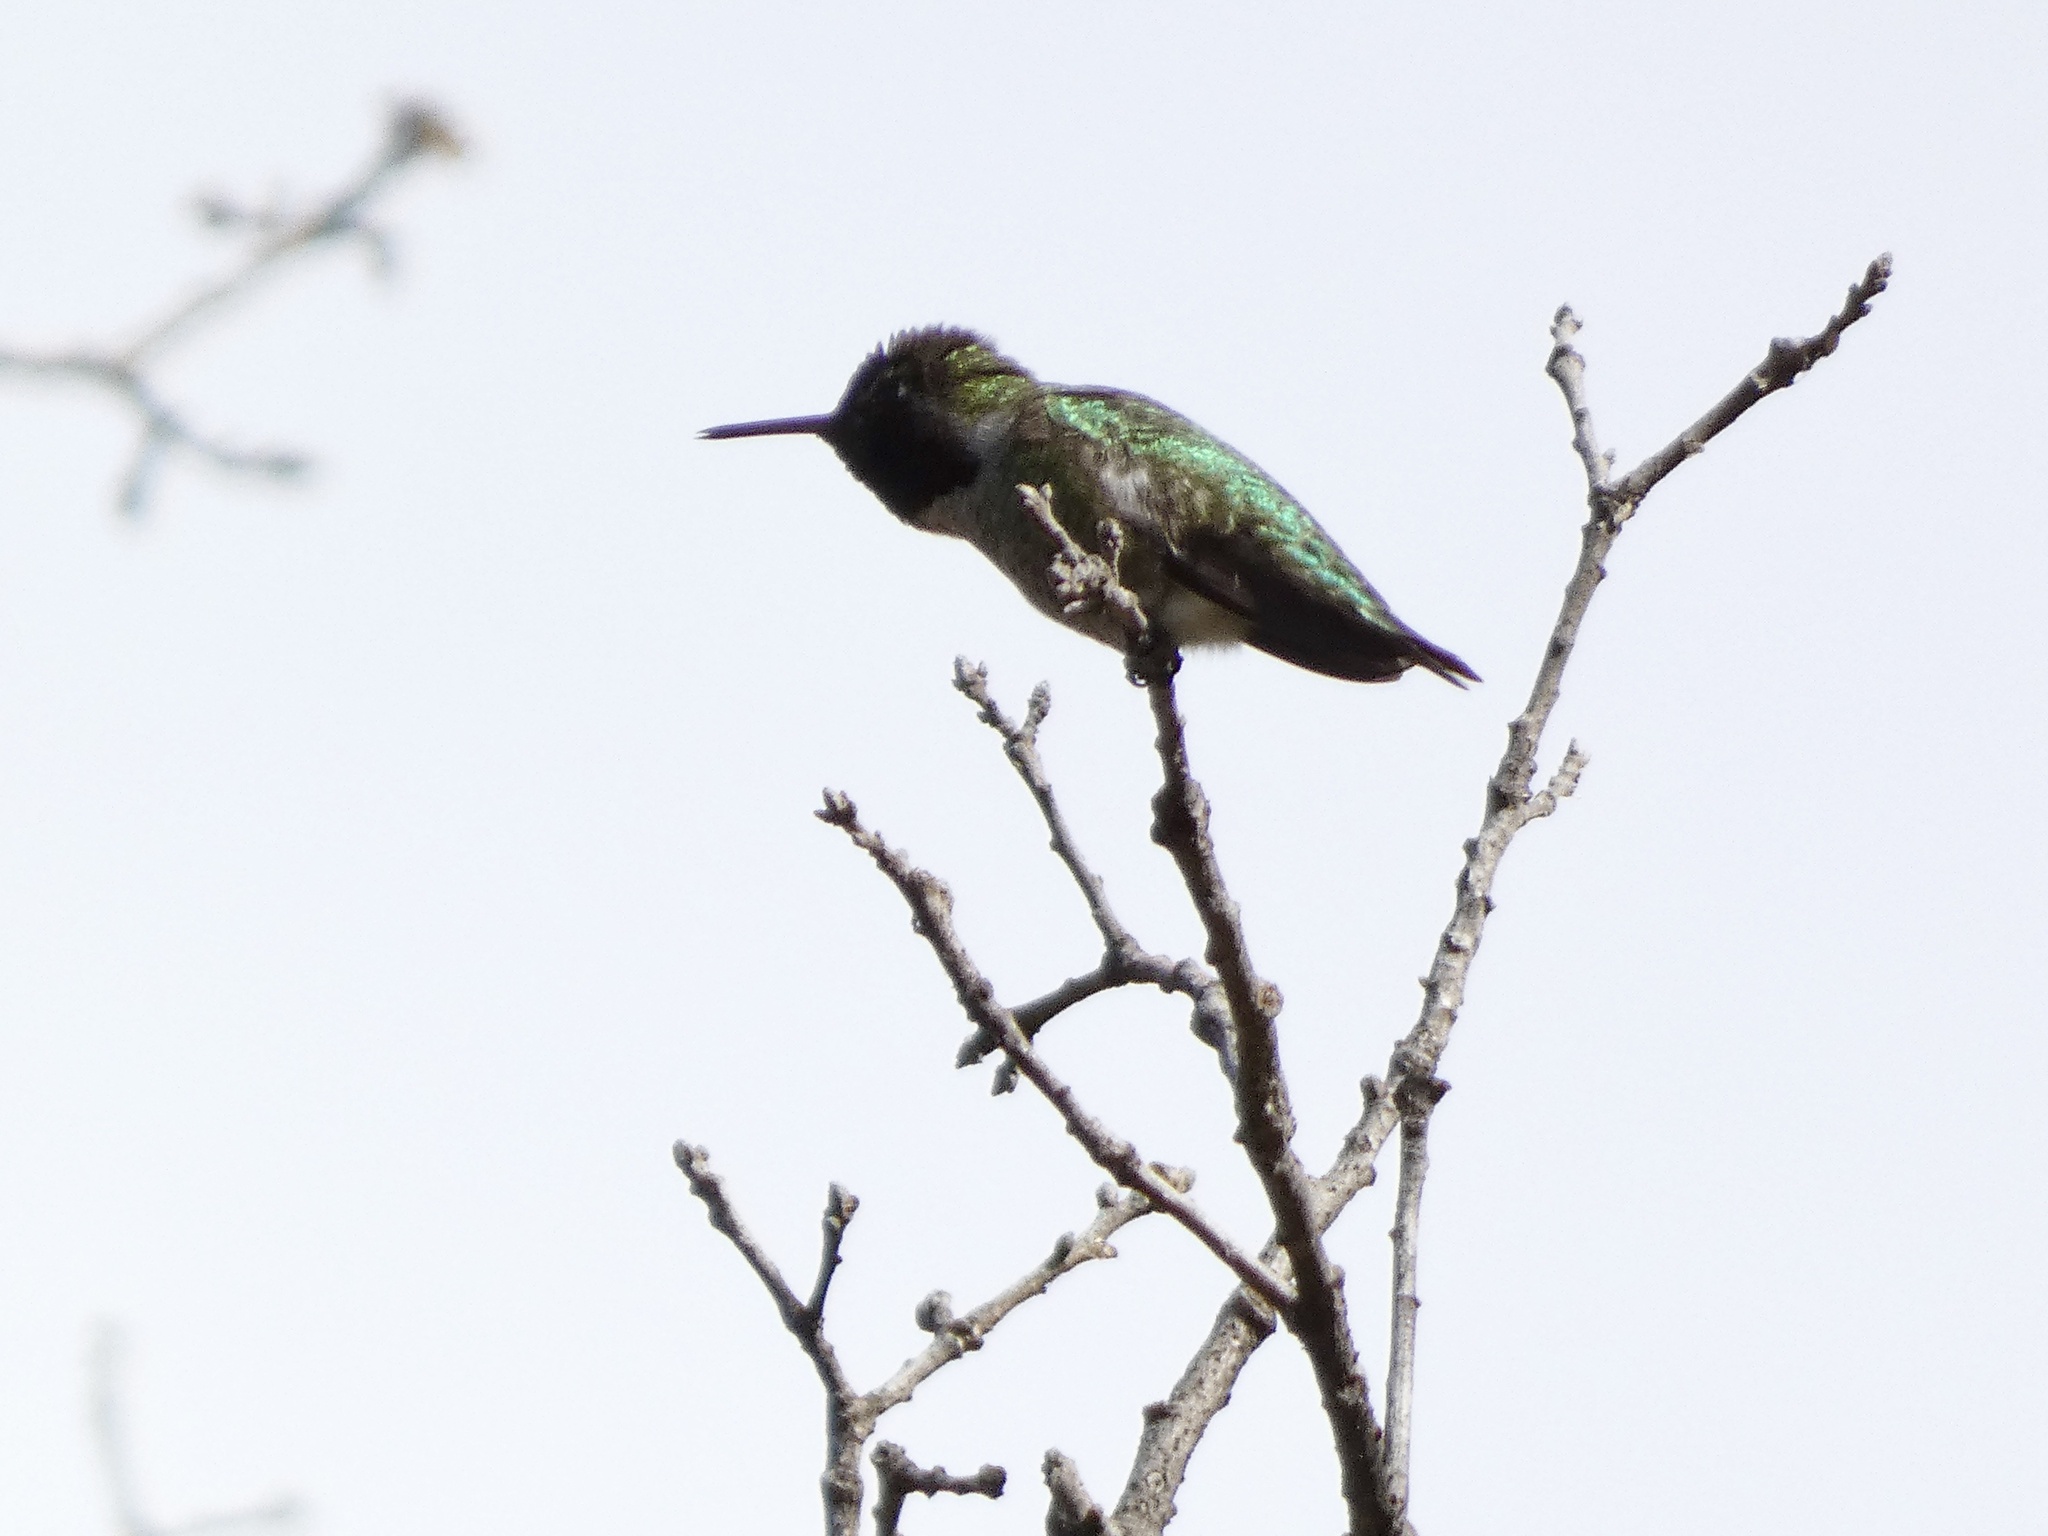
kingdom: Animalia
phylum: Chordata
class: Aves
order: Apodiformes
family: Trochilidae
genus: Calypte
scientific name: Calypte anna
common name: Anna's hummingbird
